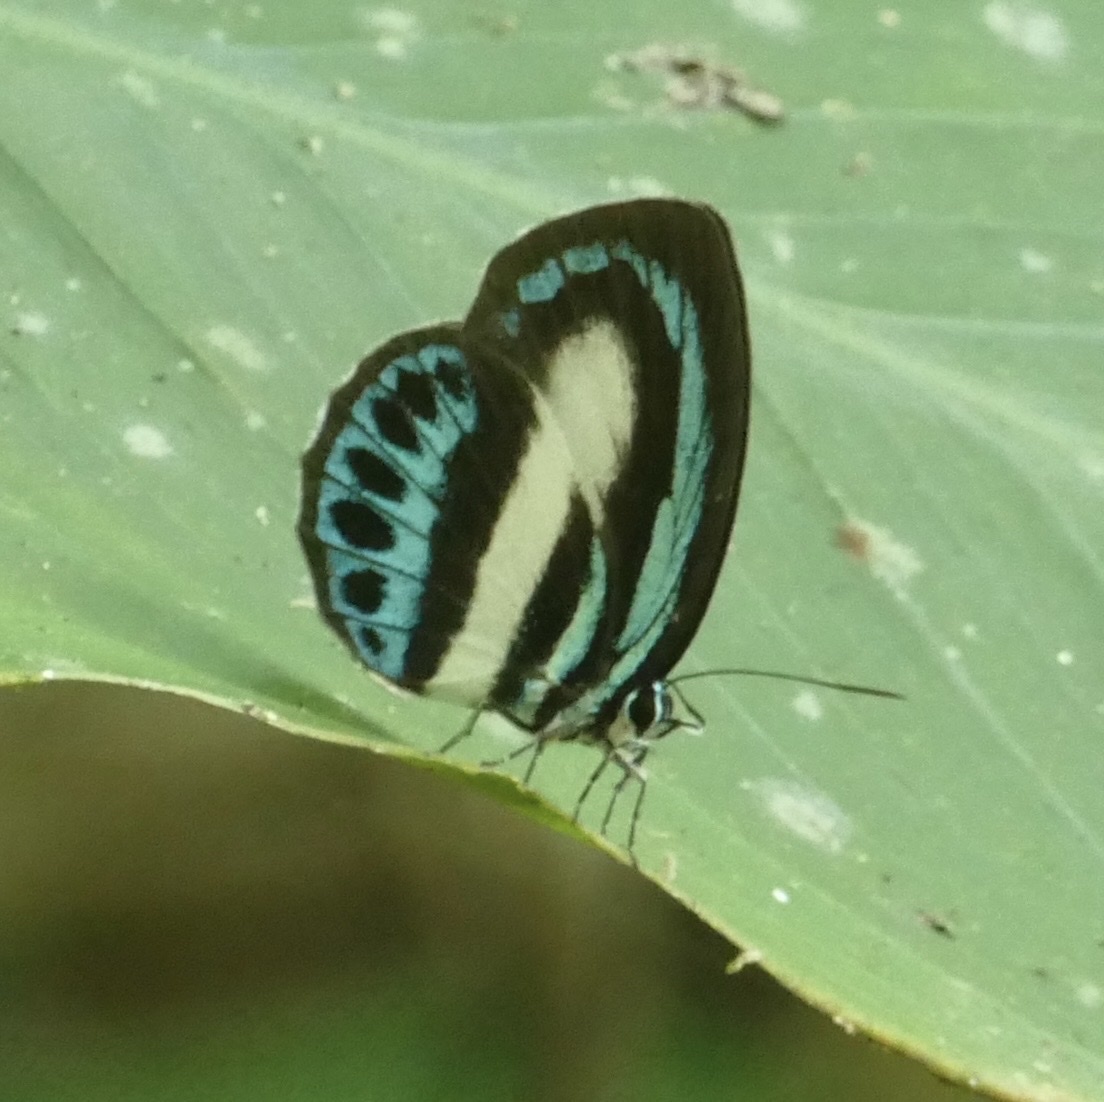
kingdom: Animalia
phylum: Arthropoda
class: Insecta
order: Lepidoptera
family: Lycaenidae
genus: Danis
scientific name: Danis danis
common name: Large green-banded blue
